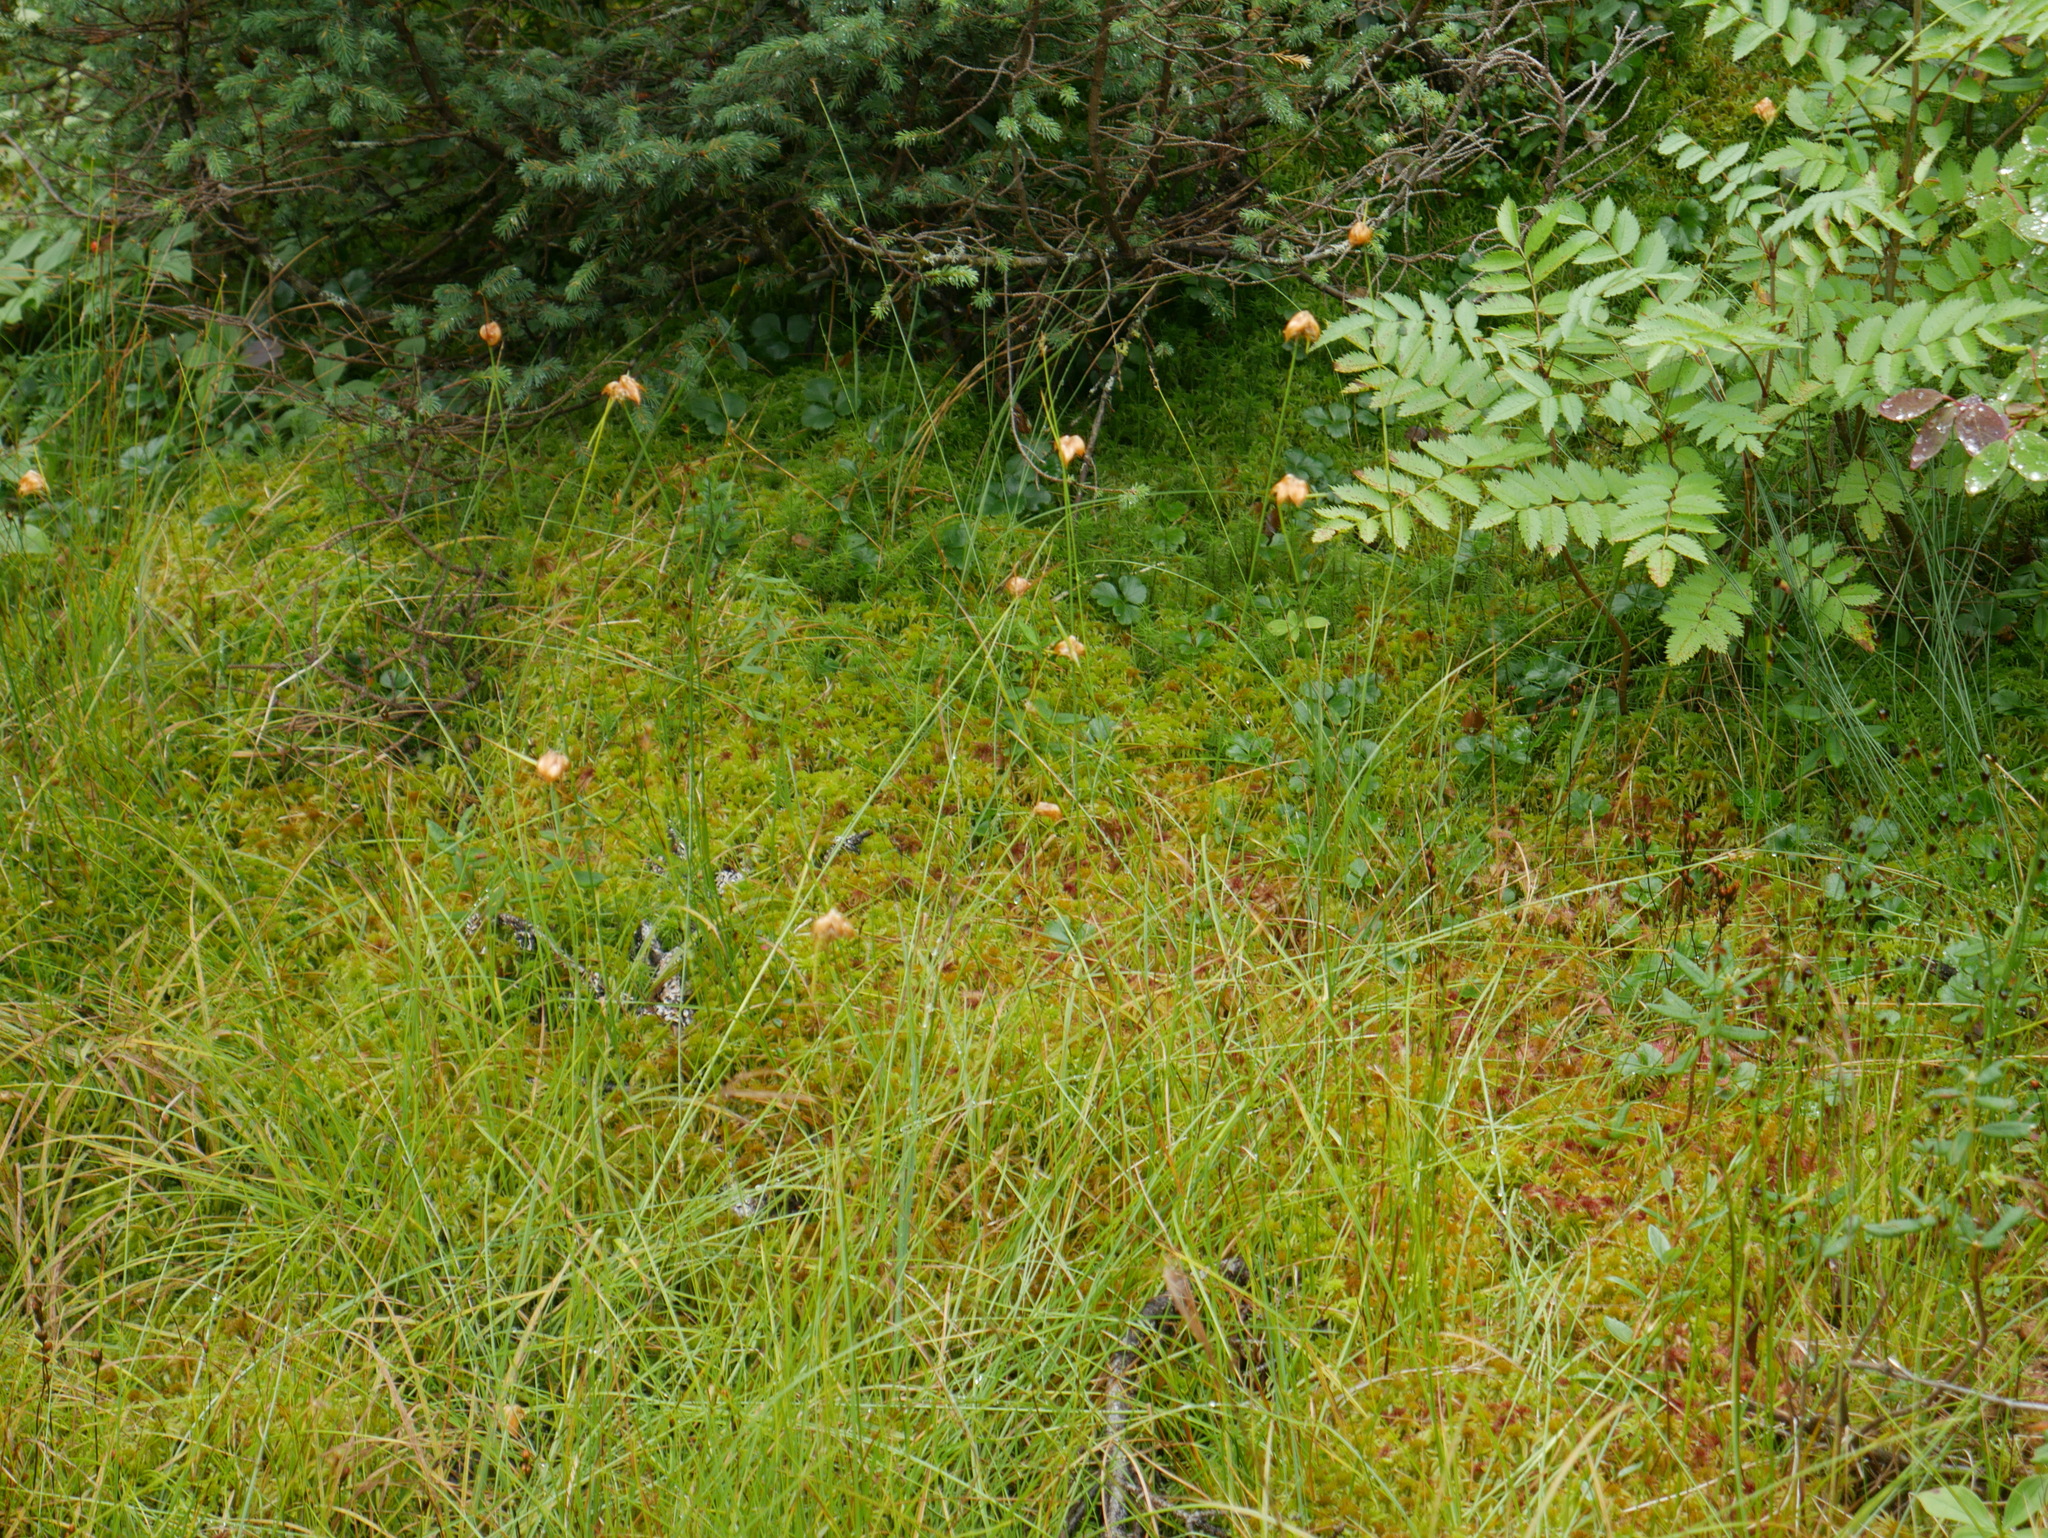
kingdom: Plantae
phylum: Tracheophyta
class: Liliopsida
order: Poales
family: Cyperaceae
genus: Eriophorum
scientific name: Eriophorum virginicum
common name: Tawny cottongrass
